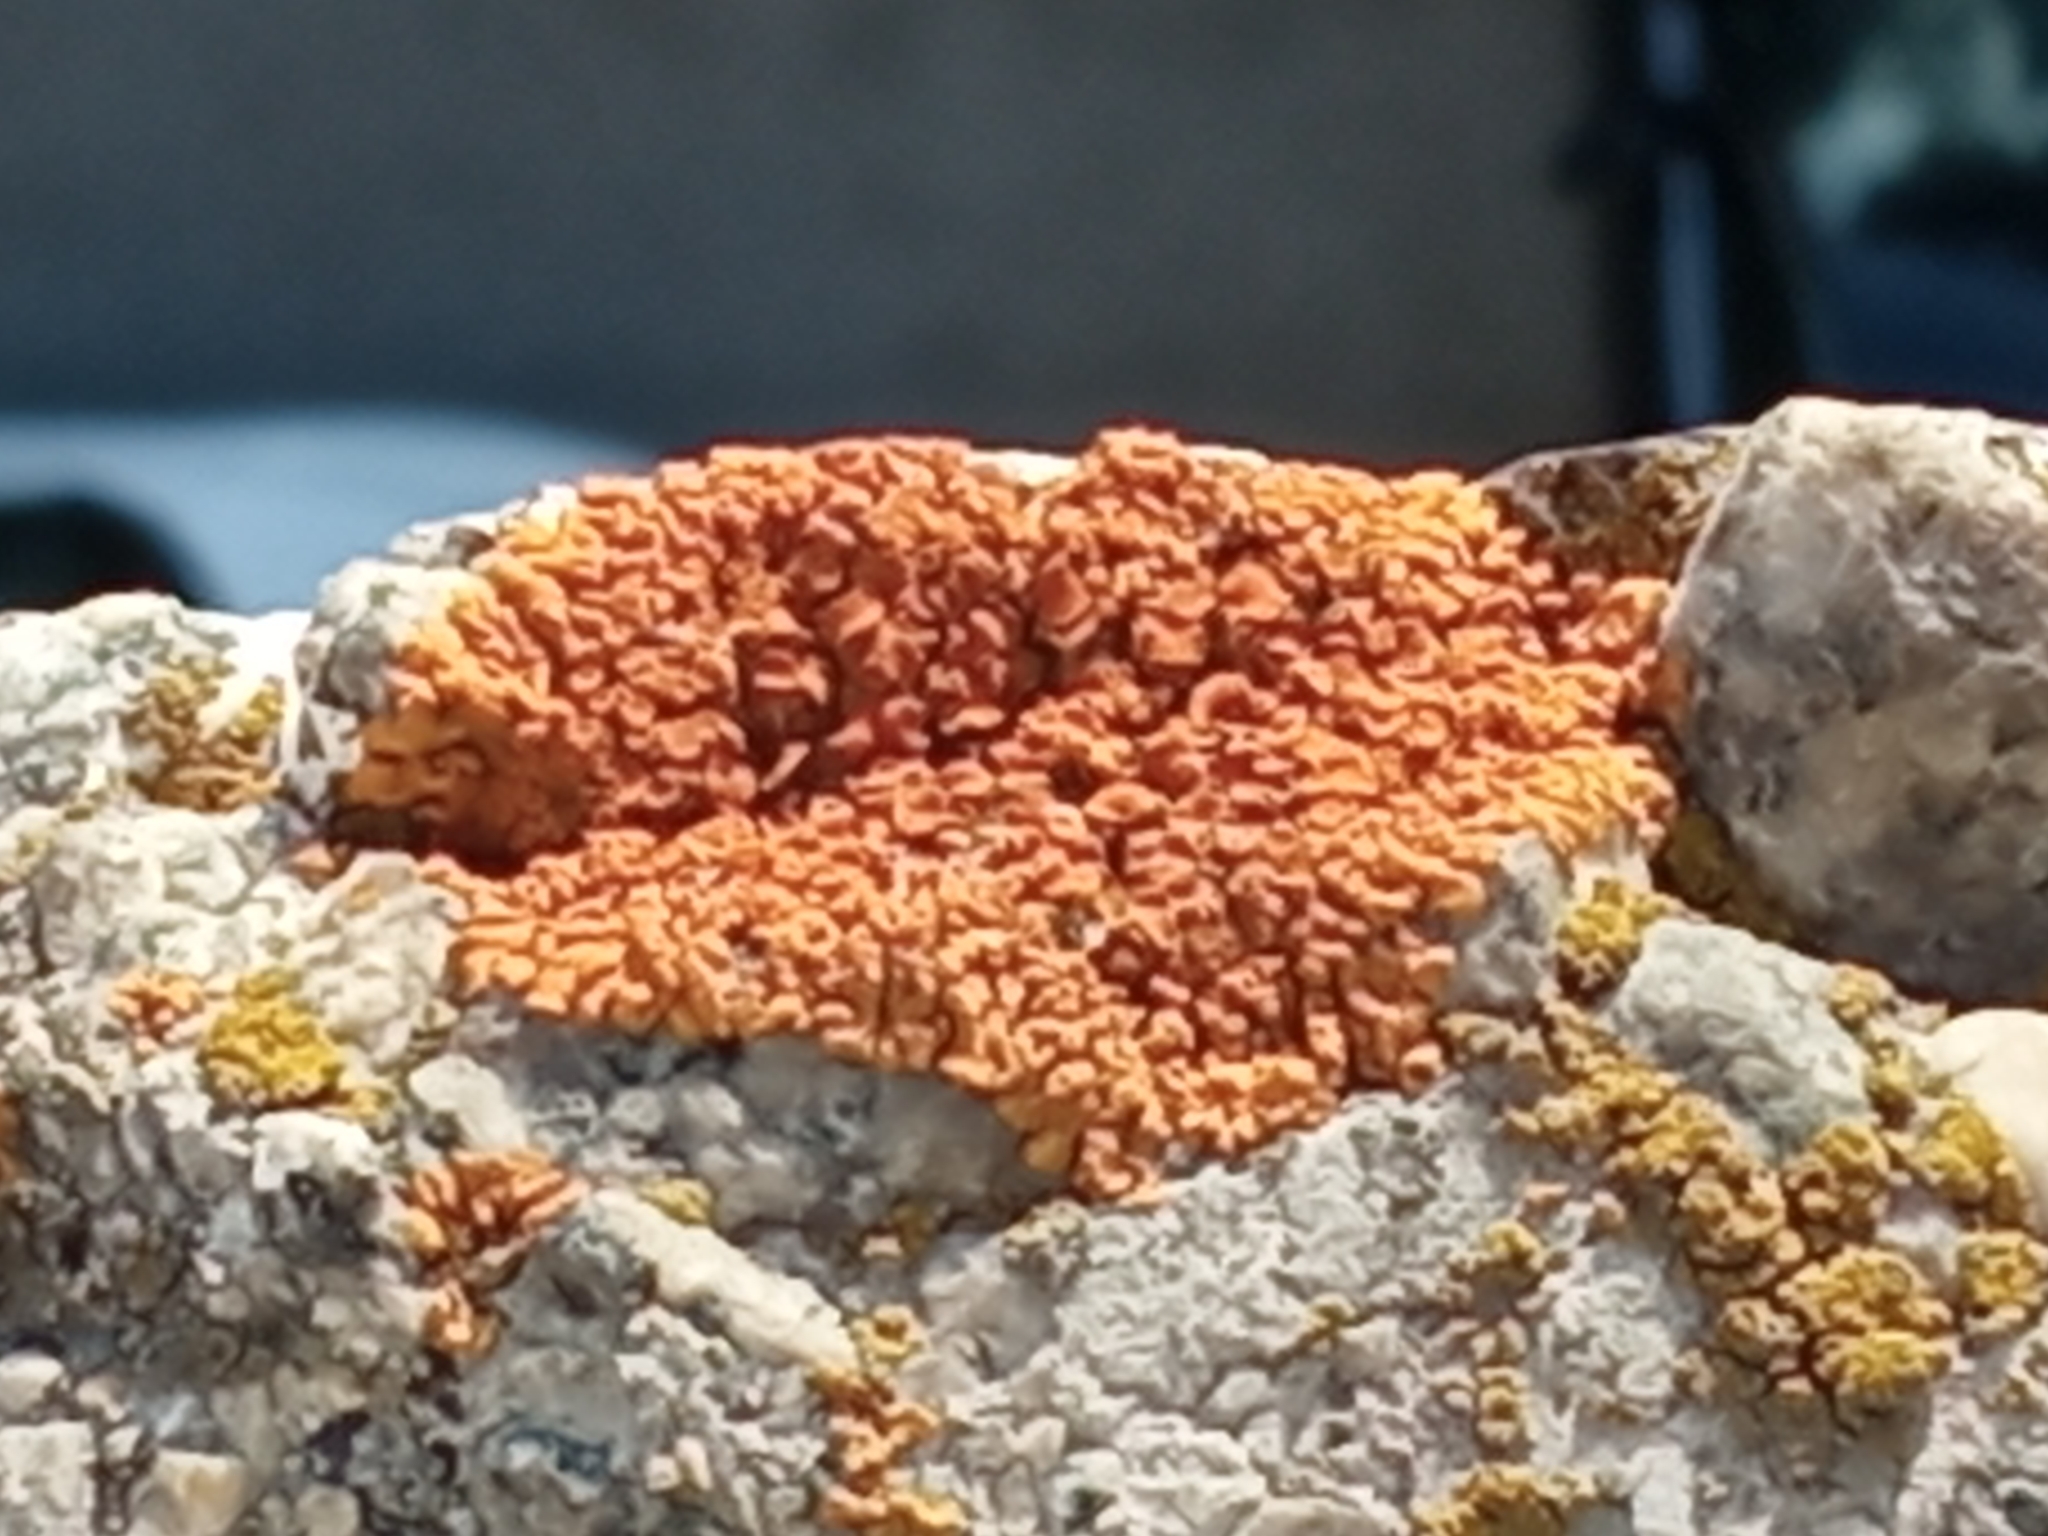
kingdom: Fungi
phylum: Ascomycota
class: Lecanoromycetes
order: Teloschistales
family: Teloschistaceae
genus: Xanthoria
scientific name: Xanthoria elegans
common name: Elegant sunburst lichen
